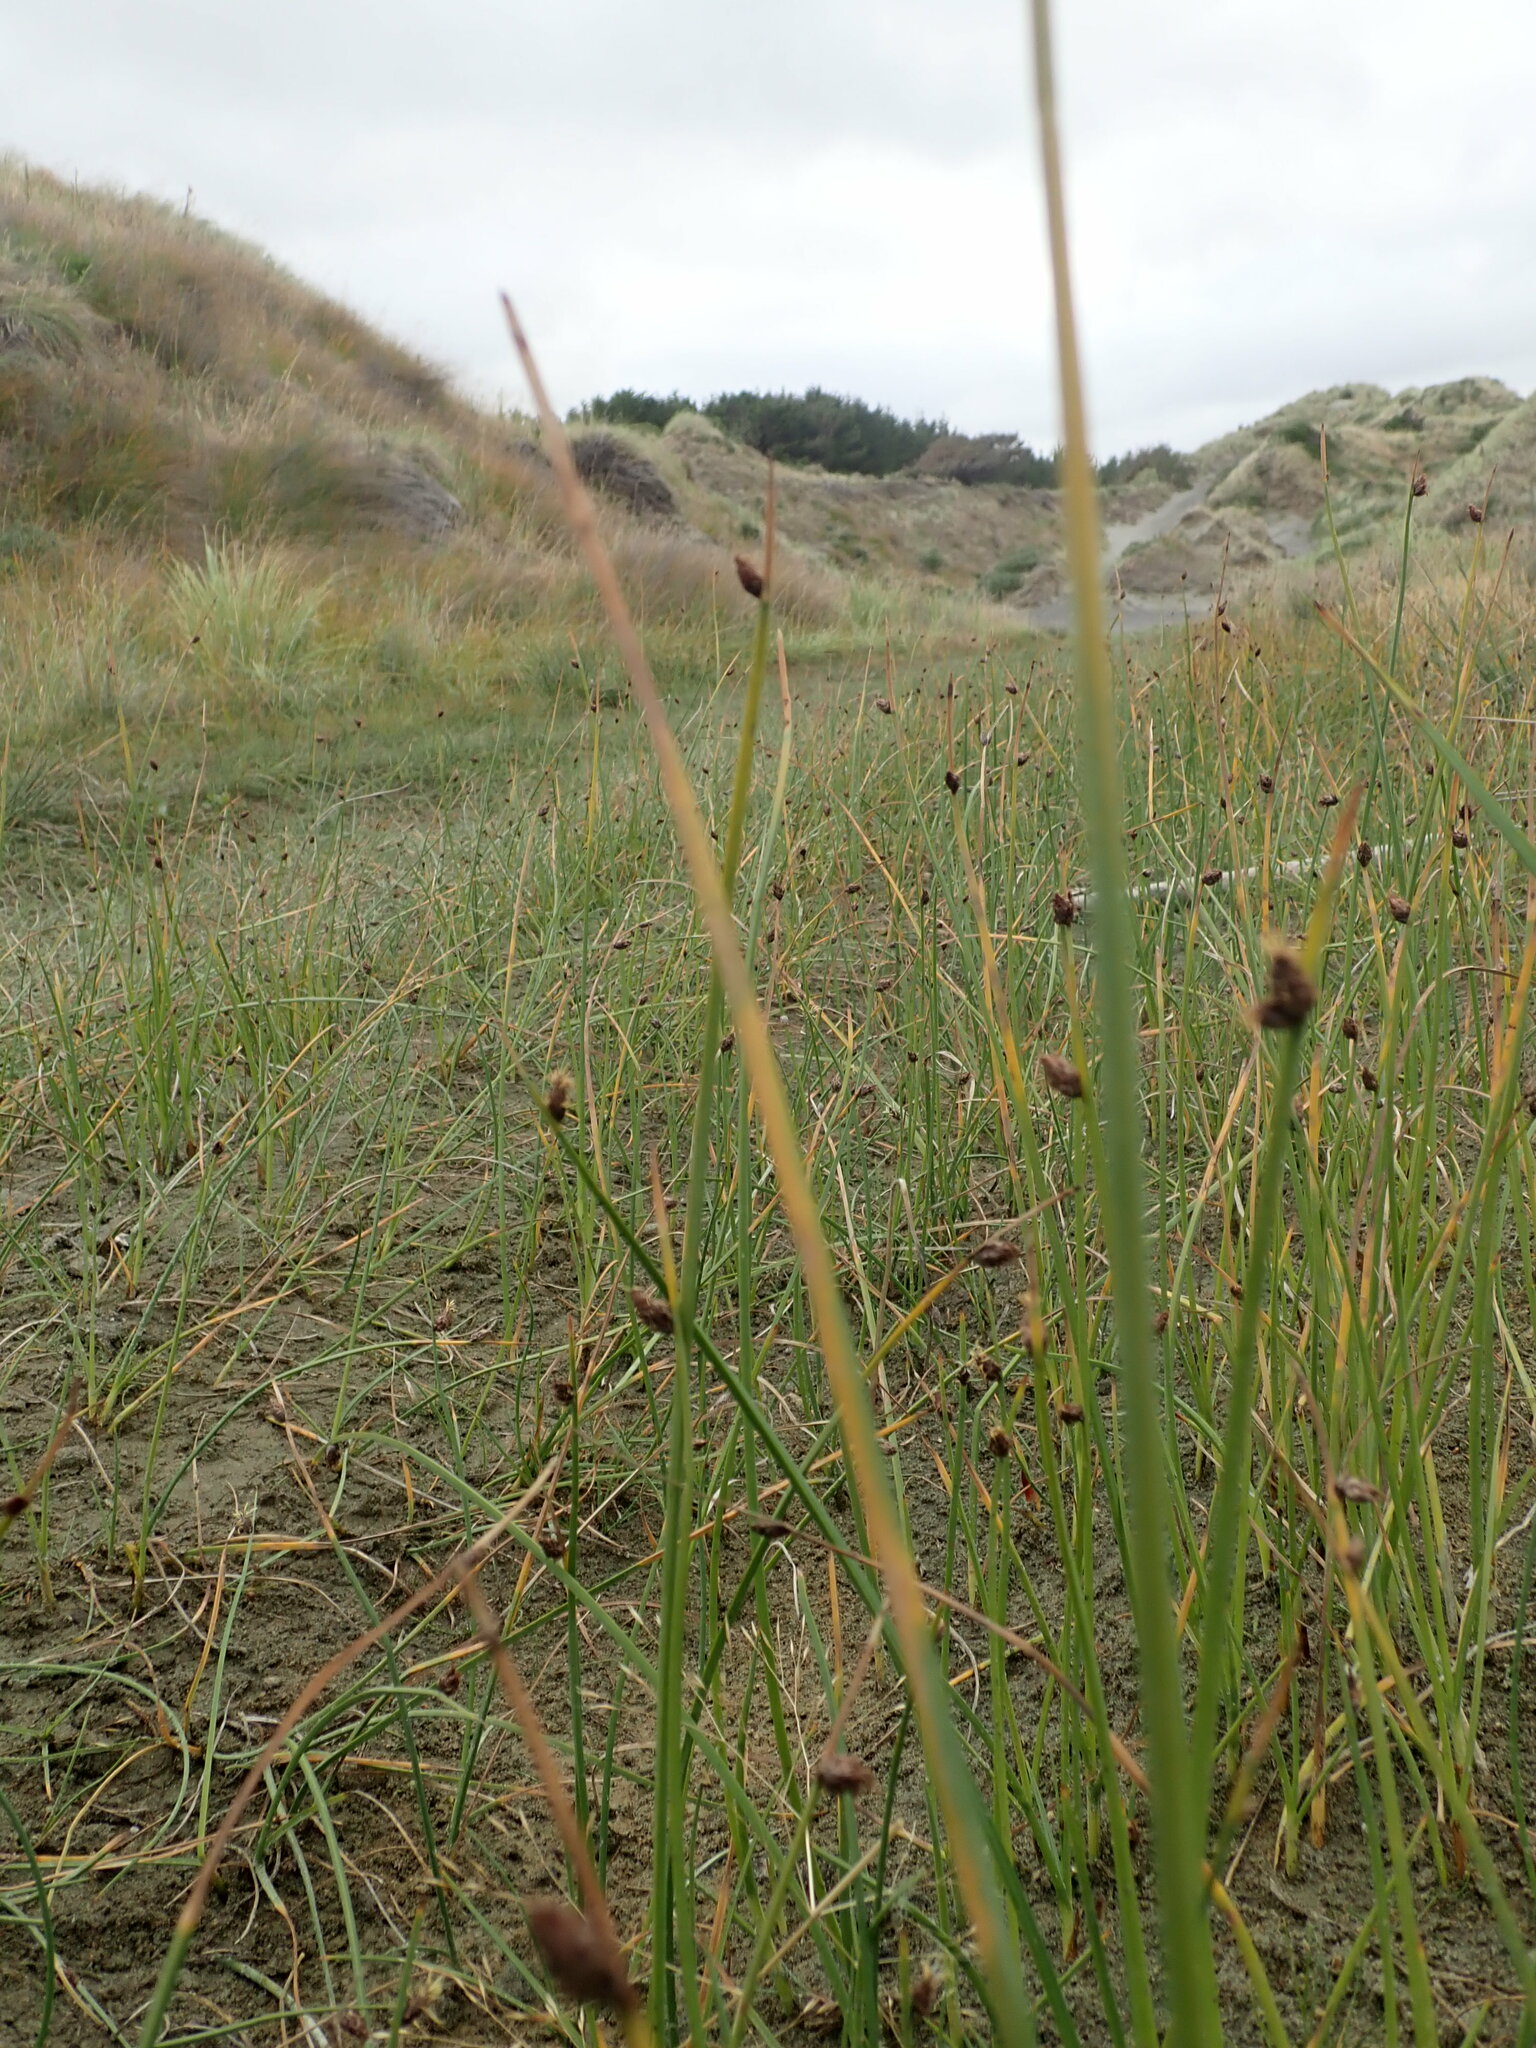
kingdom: Plantae
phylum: Tracheophyta
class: Liliopsida
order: Poales
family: Cyperaceae
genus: Schoenoplectus
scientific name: Schoenoplectus pungens
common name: Sharp club-rush
